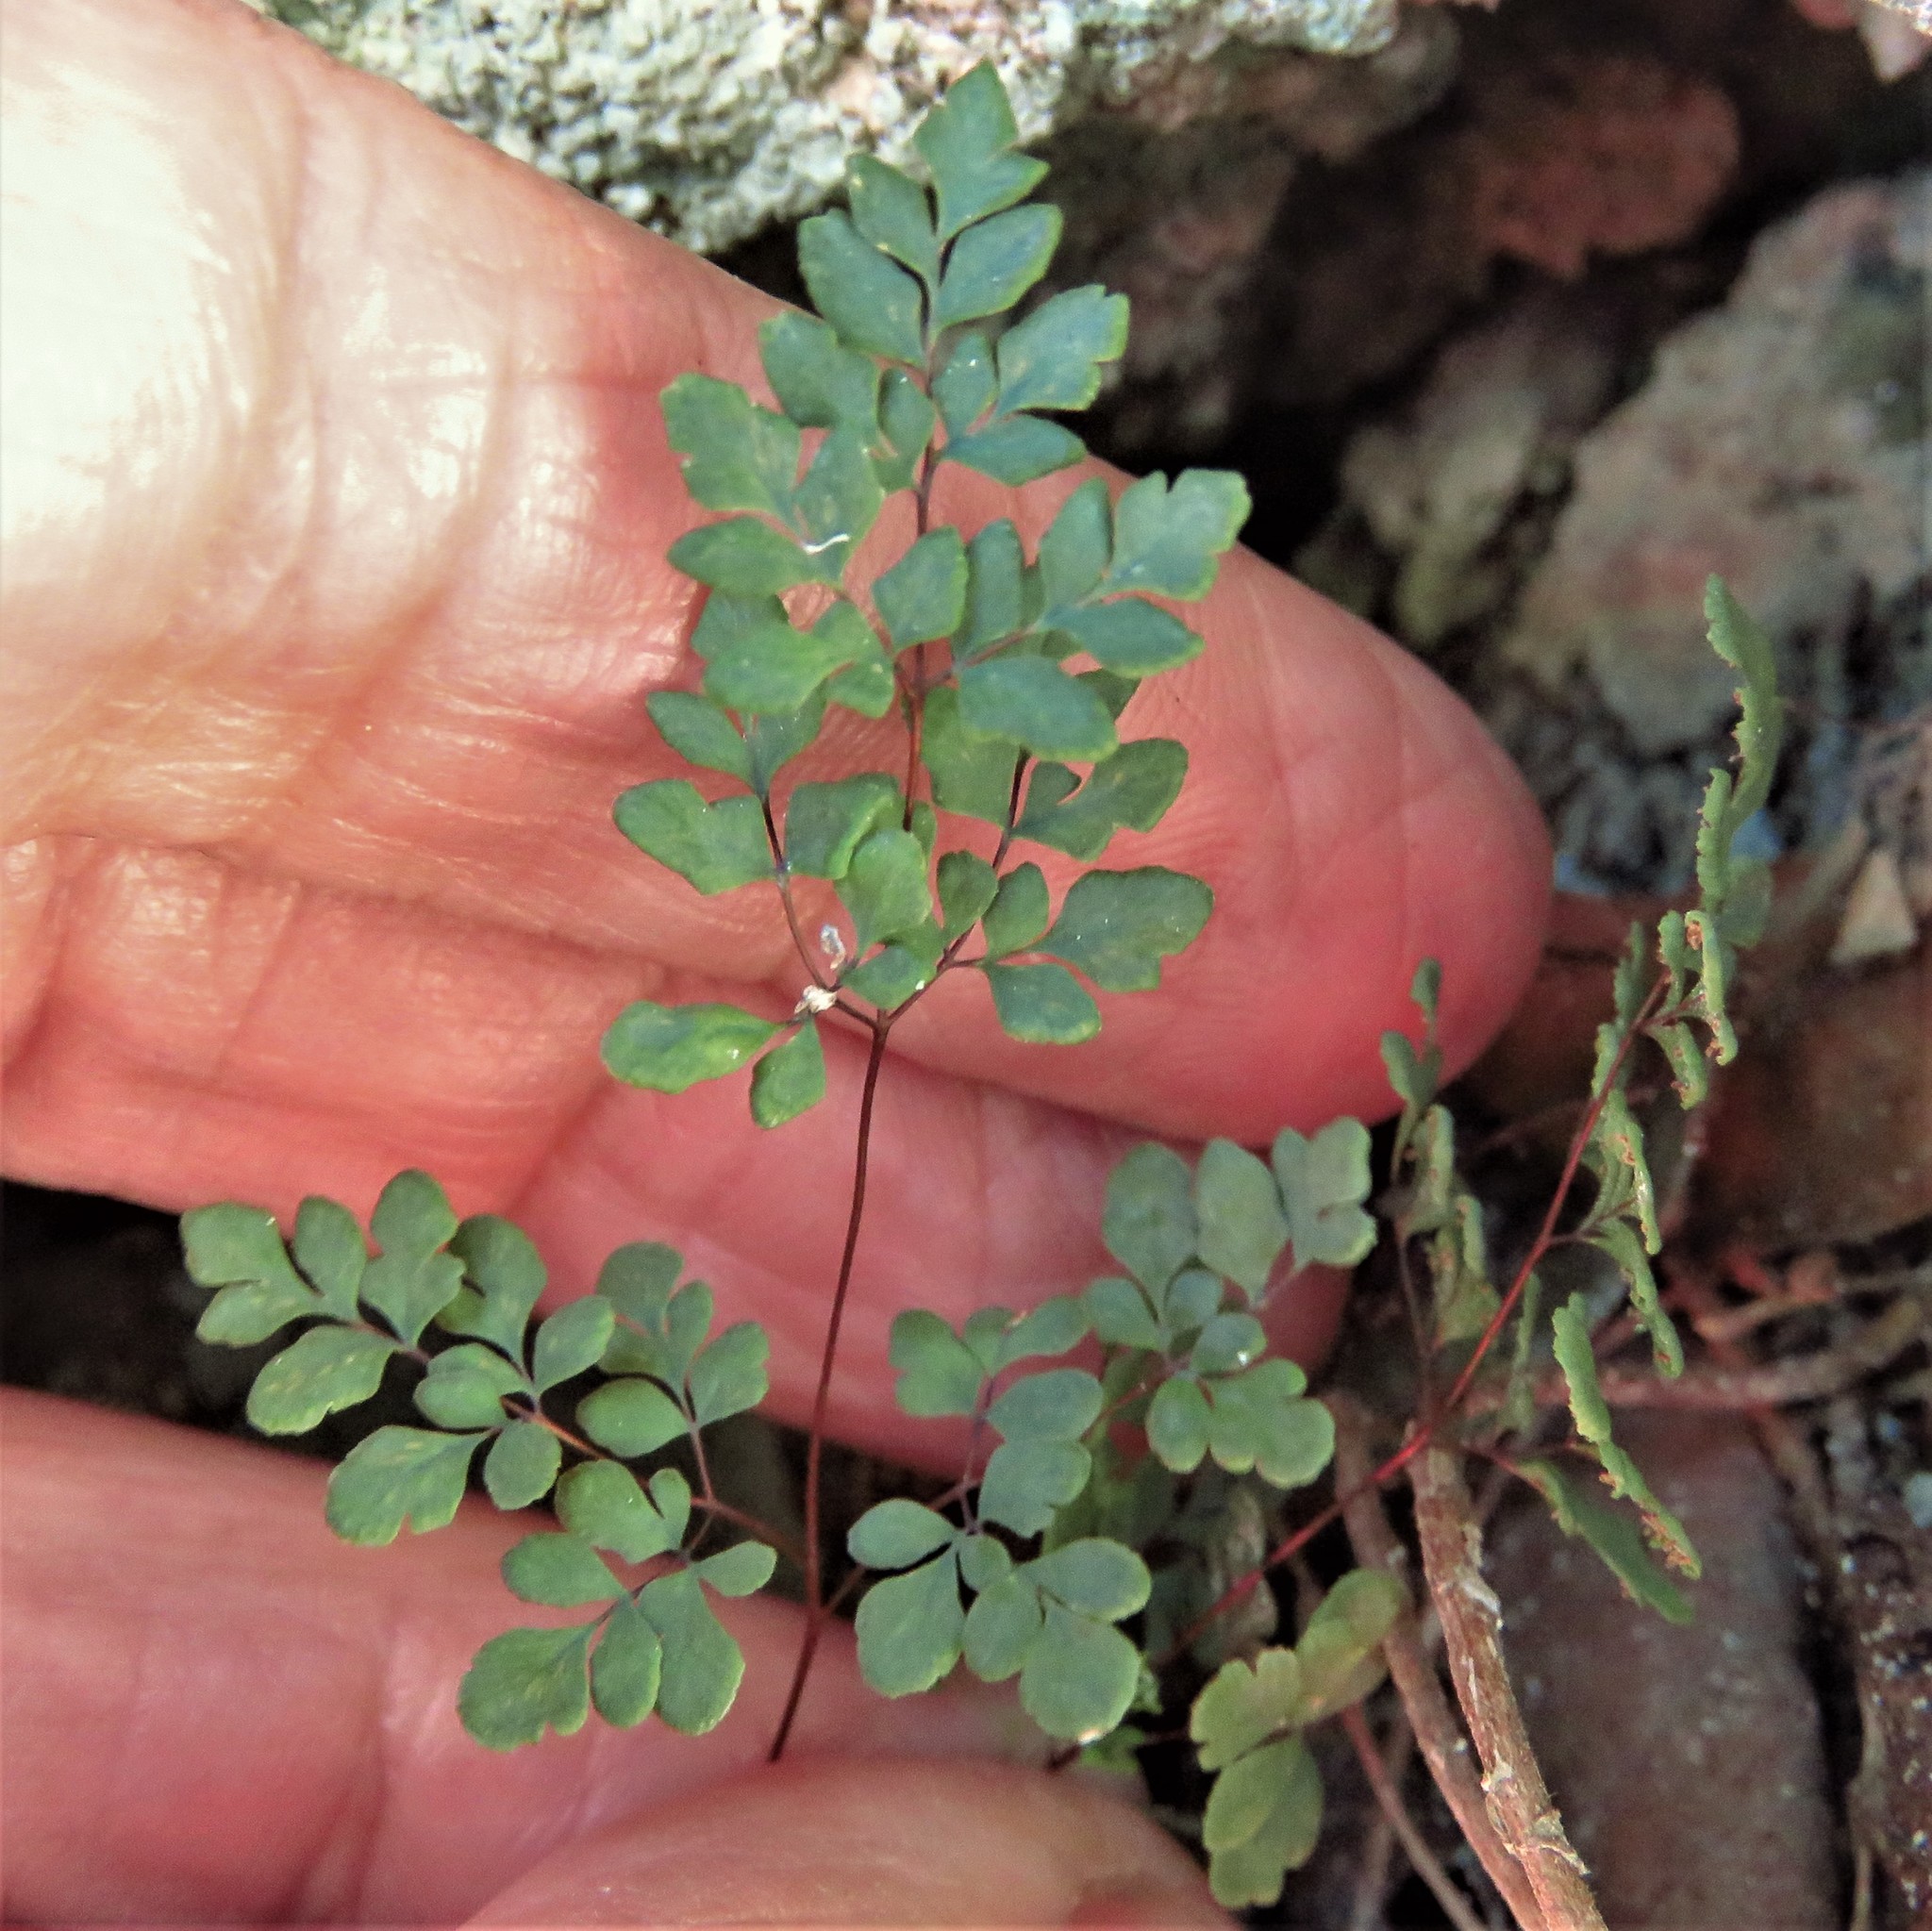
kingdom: Plantae
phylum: Tracheophyta
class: Polypodiopsida
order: Polypodiales
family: Pteridaceae
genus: Argyrochosma
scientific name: Argyrochosma dealbata
